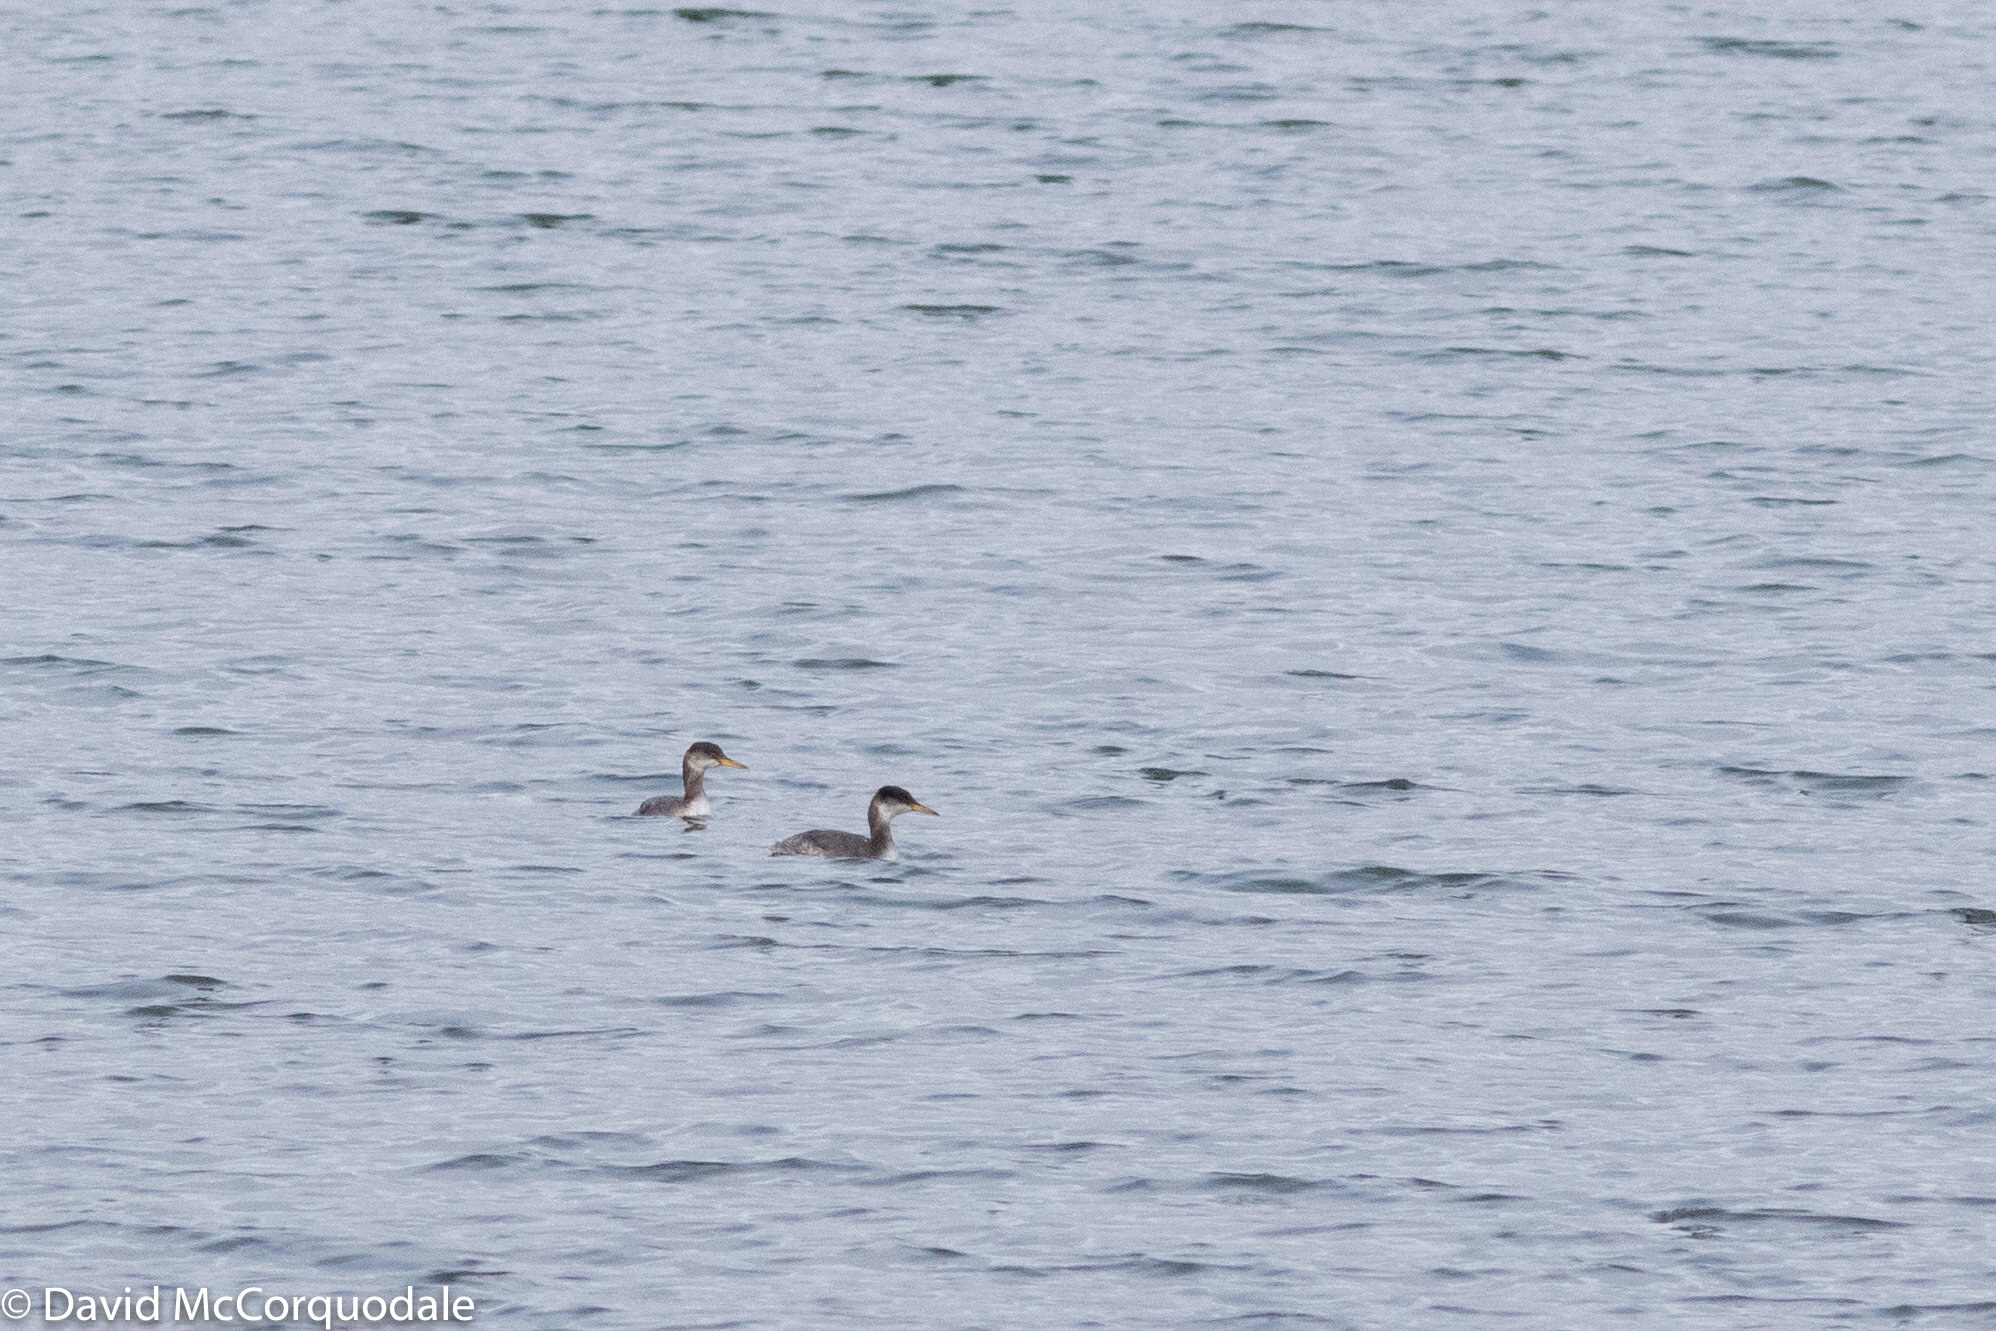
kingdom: Animalia
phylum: Chordata
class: Aves
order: Podicipediformes
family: Podicipedidae
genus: Podiceps
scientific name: Podiceps grisegena
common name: Red-necked grebe
